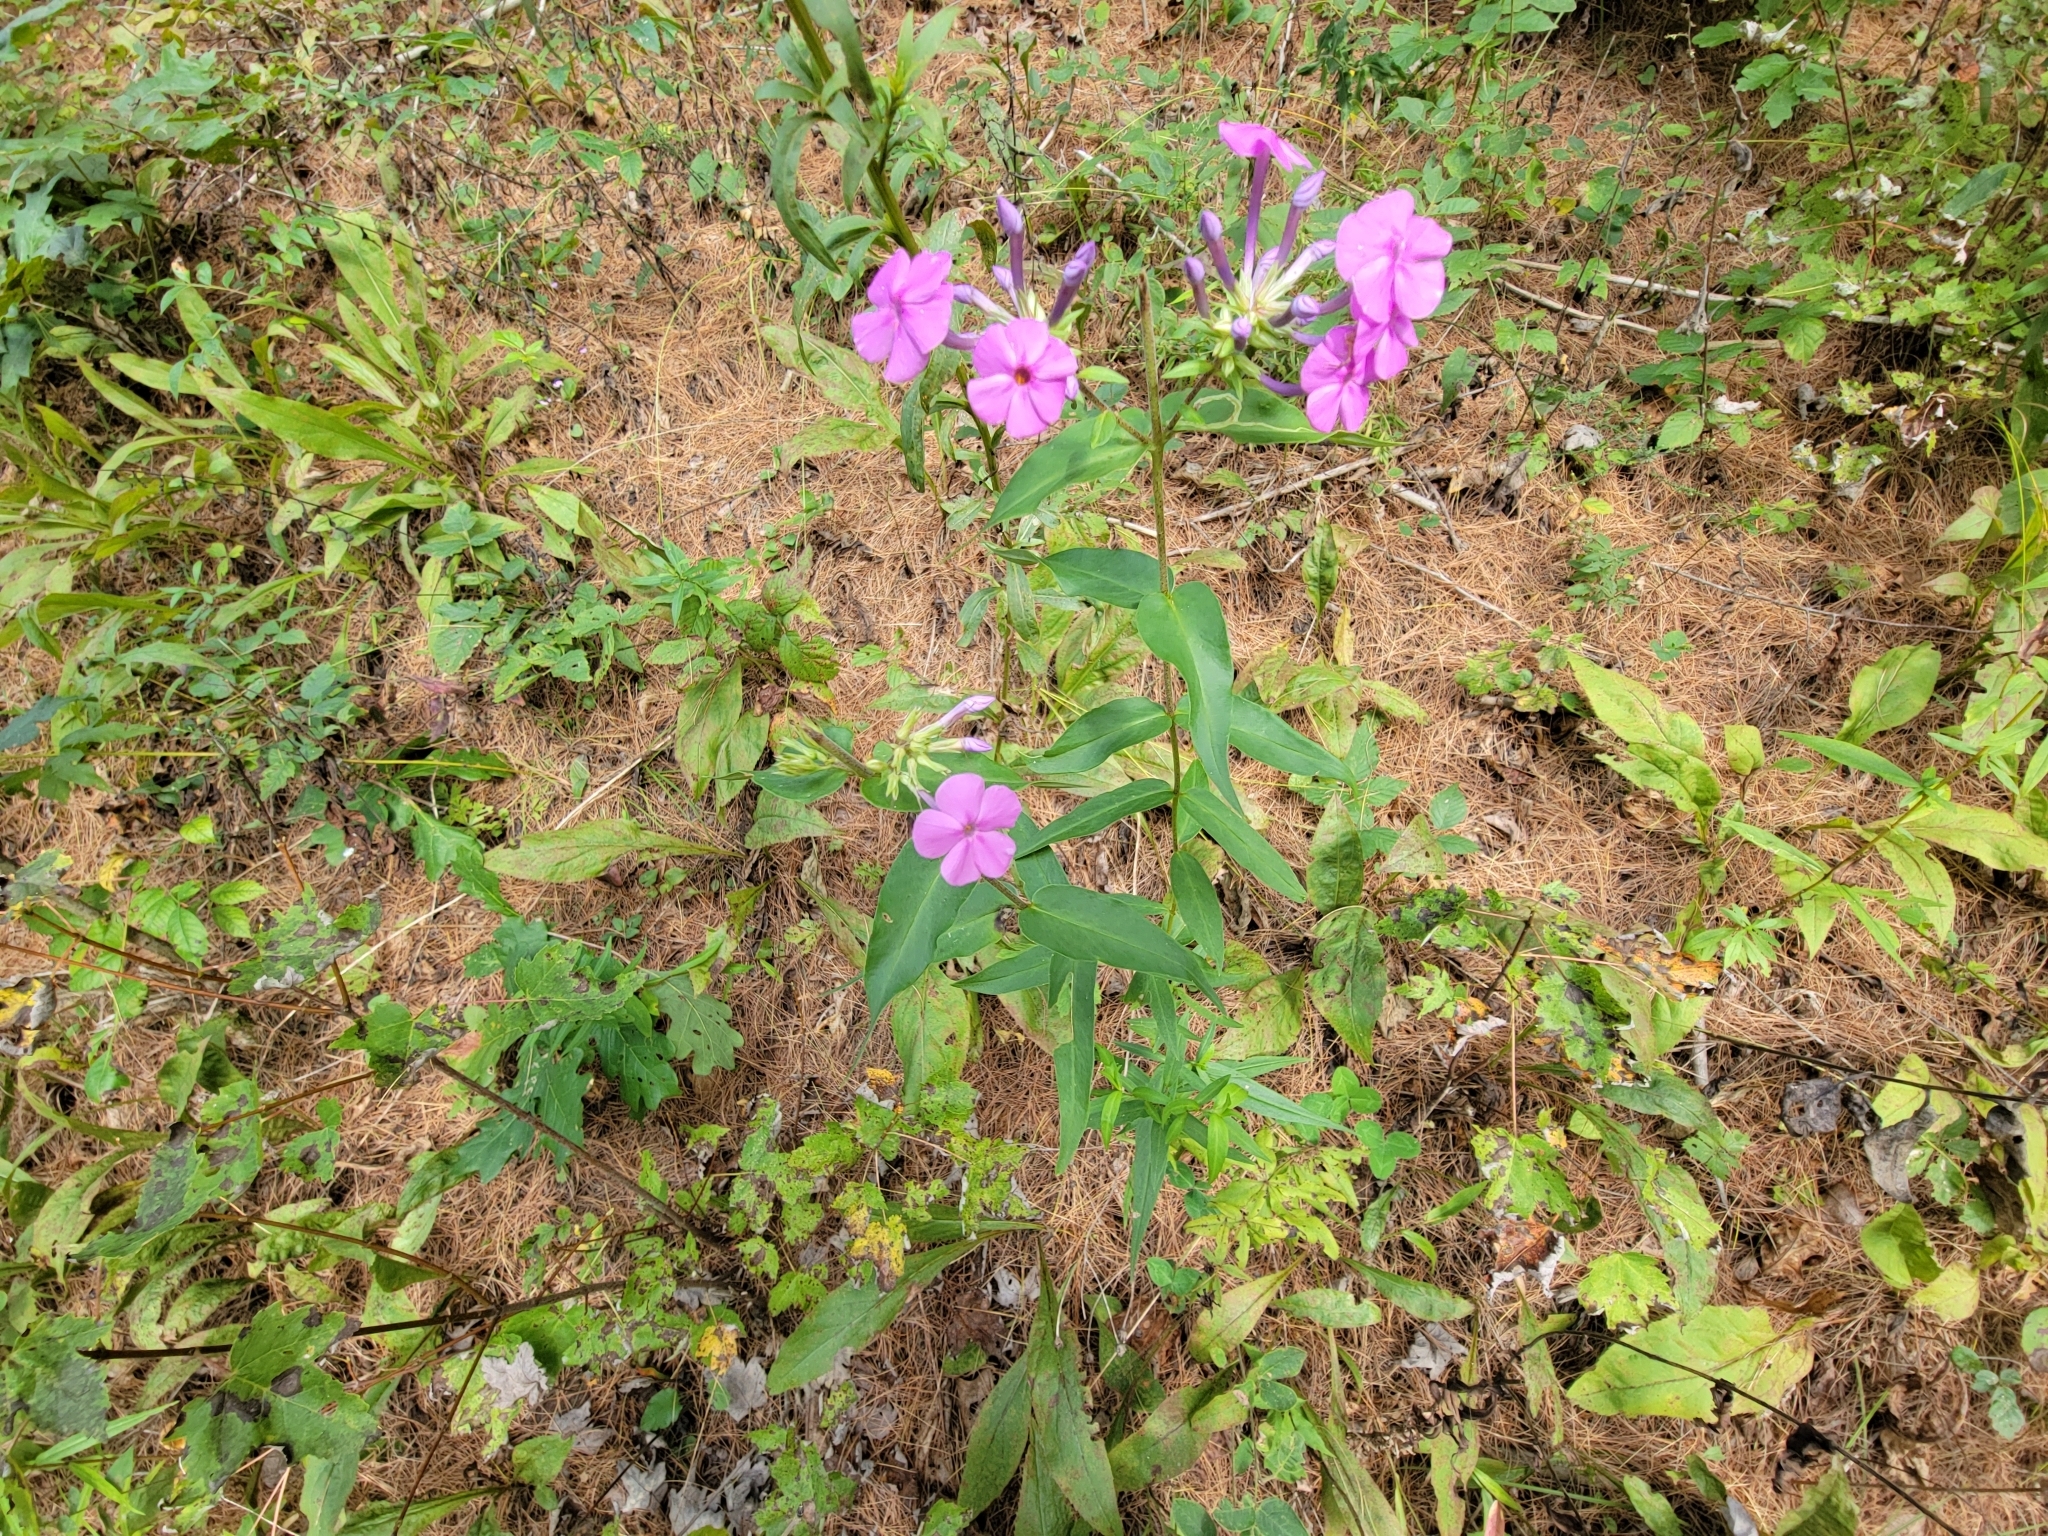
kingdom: Plantae
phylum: Tracheophyta
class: Magnoliopsida
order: Ericales
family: Polemoniaceae
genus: Phlox
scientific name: Phlox maculata
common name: Meadow phlox
